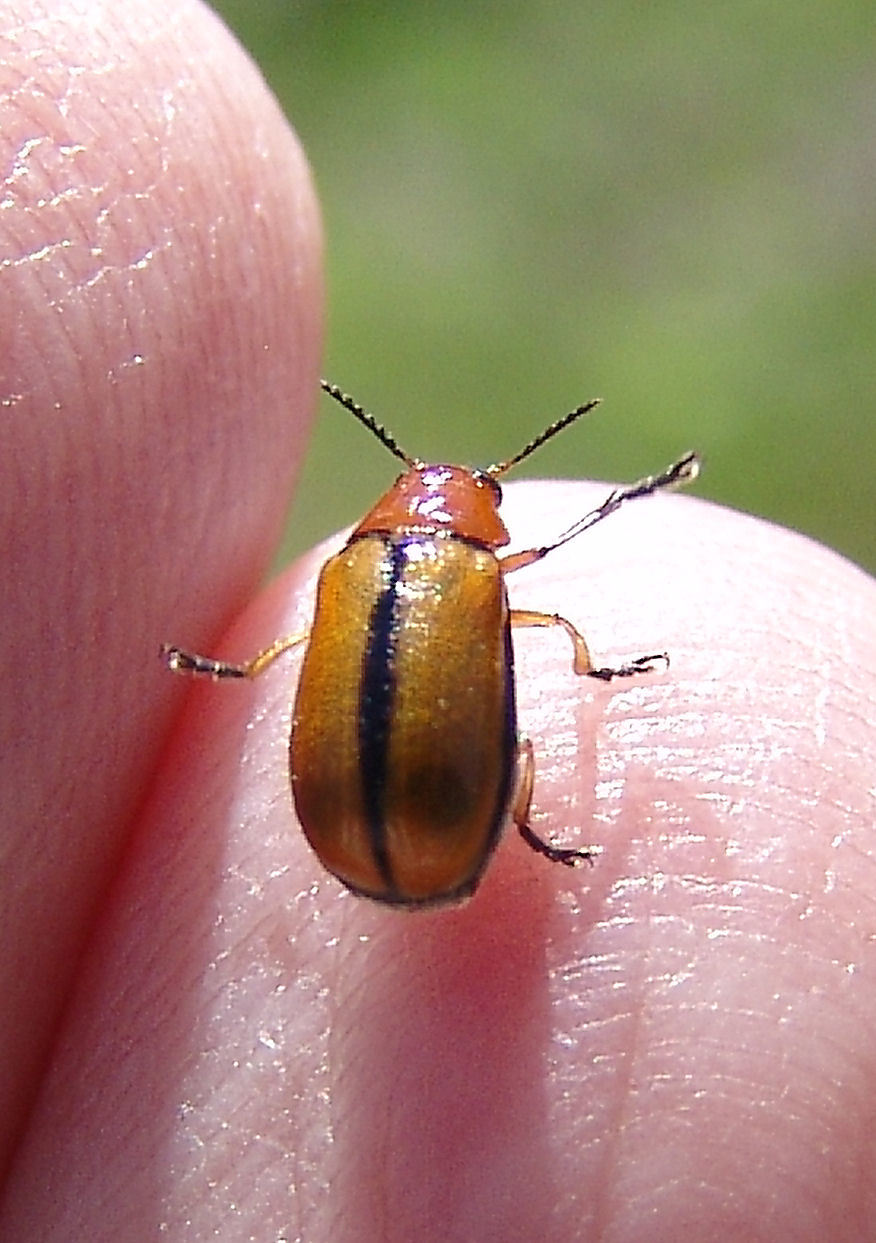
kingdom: Animalia
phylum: Arthropoda
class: Insecta
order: Coleoptera
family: Chrysomelidae
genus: Anomoea
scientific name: Anomoea laticlavia
